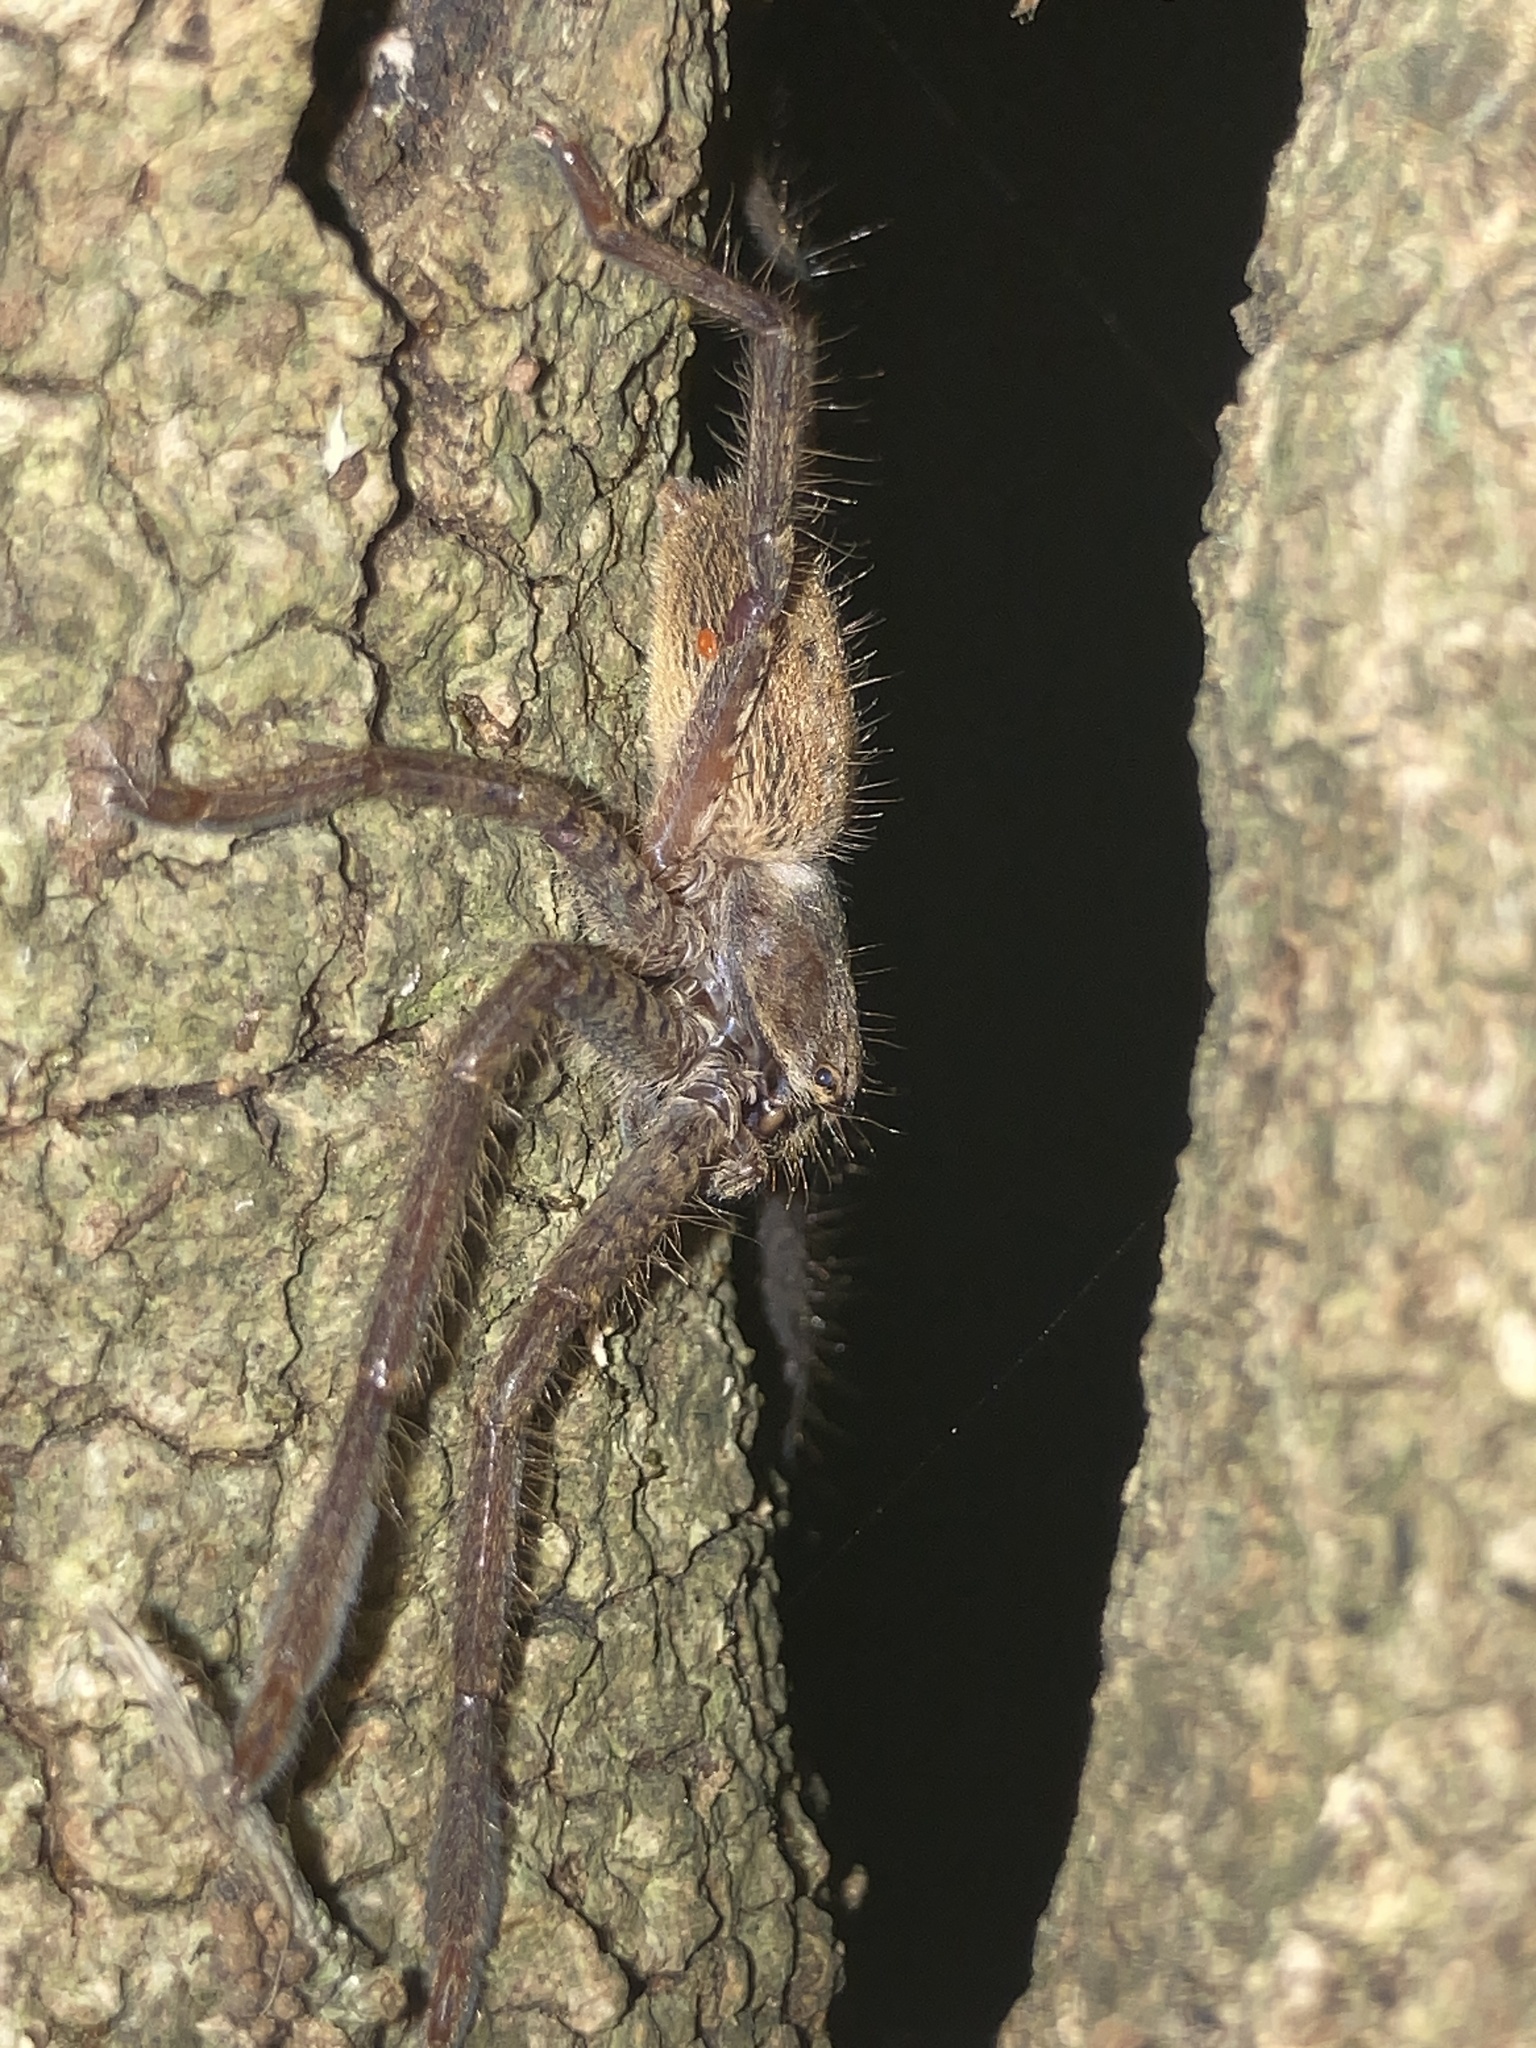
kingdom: Animalia
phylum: Arthropoda
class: Arachnida
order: Araneae
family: Sparassidae
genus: Isopeda
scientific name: Isopeda villosa
